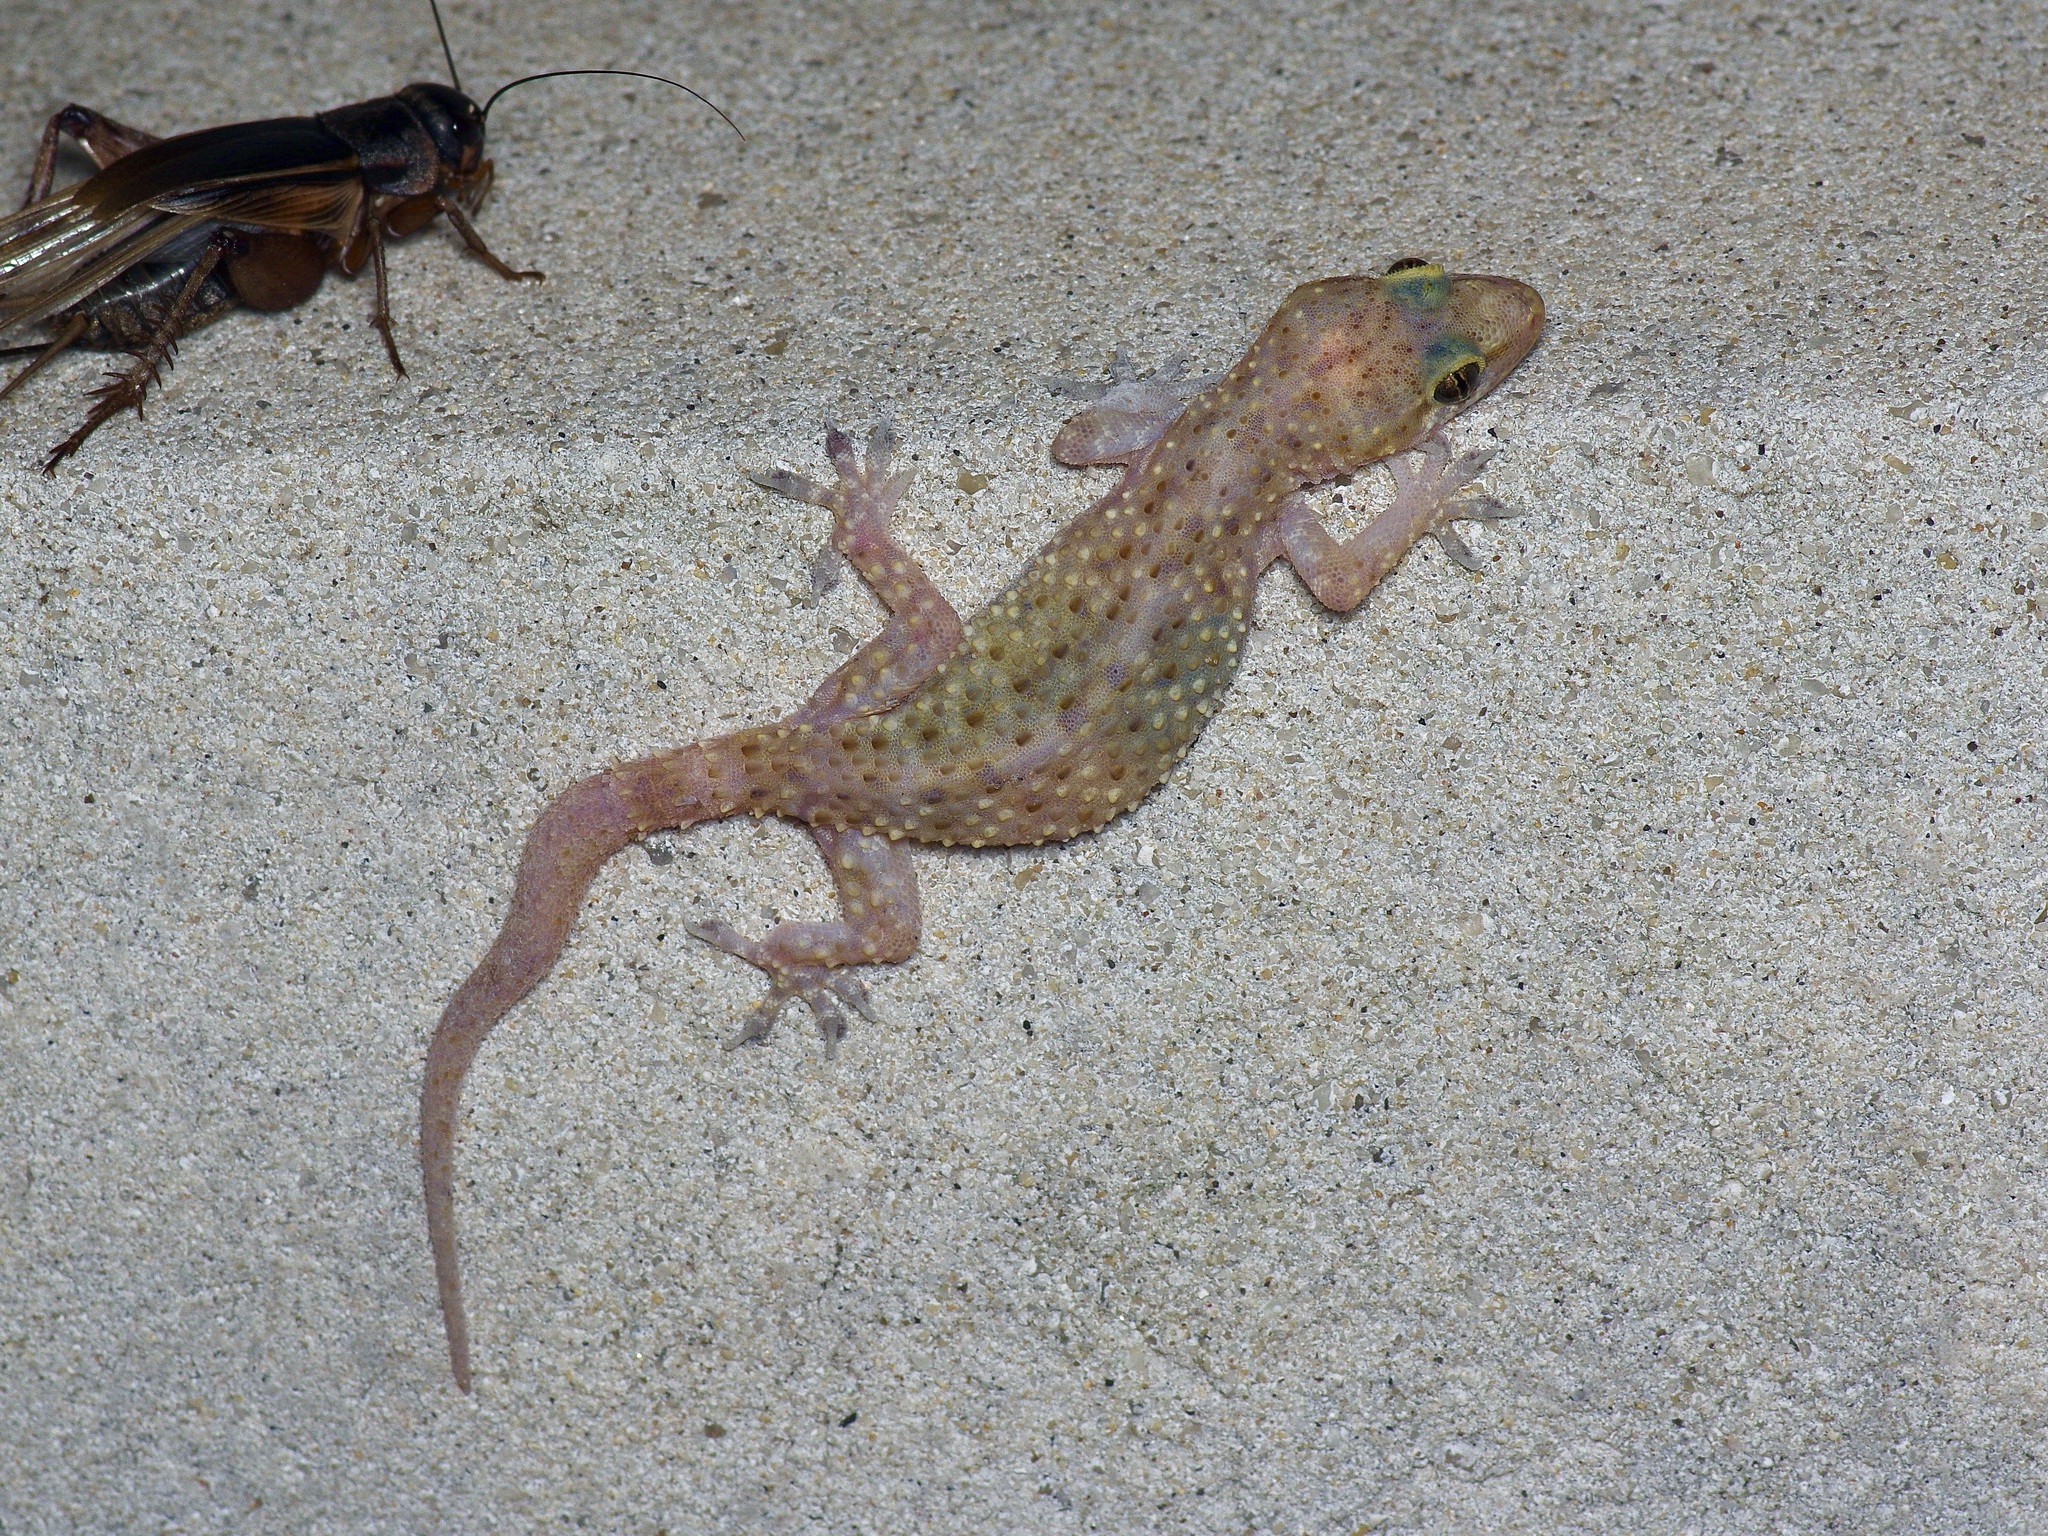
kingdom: Animalia
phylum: Chordata
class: Squamata
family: Gekkonidae
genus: Hemidactylus
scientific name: Hemidactylus turcicus
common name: Turkish gecko
